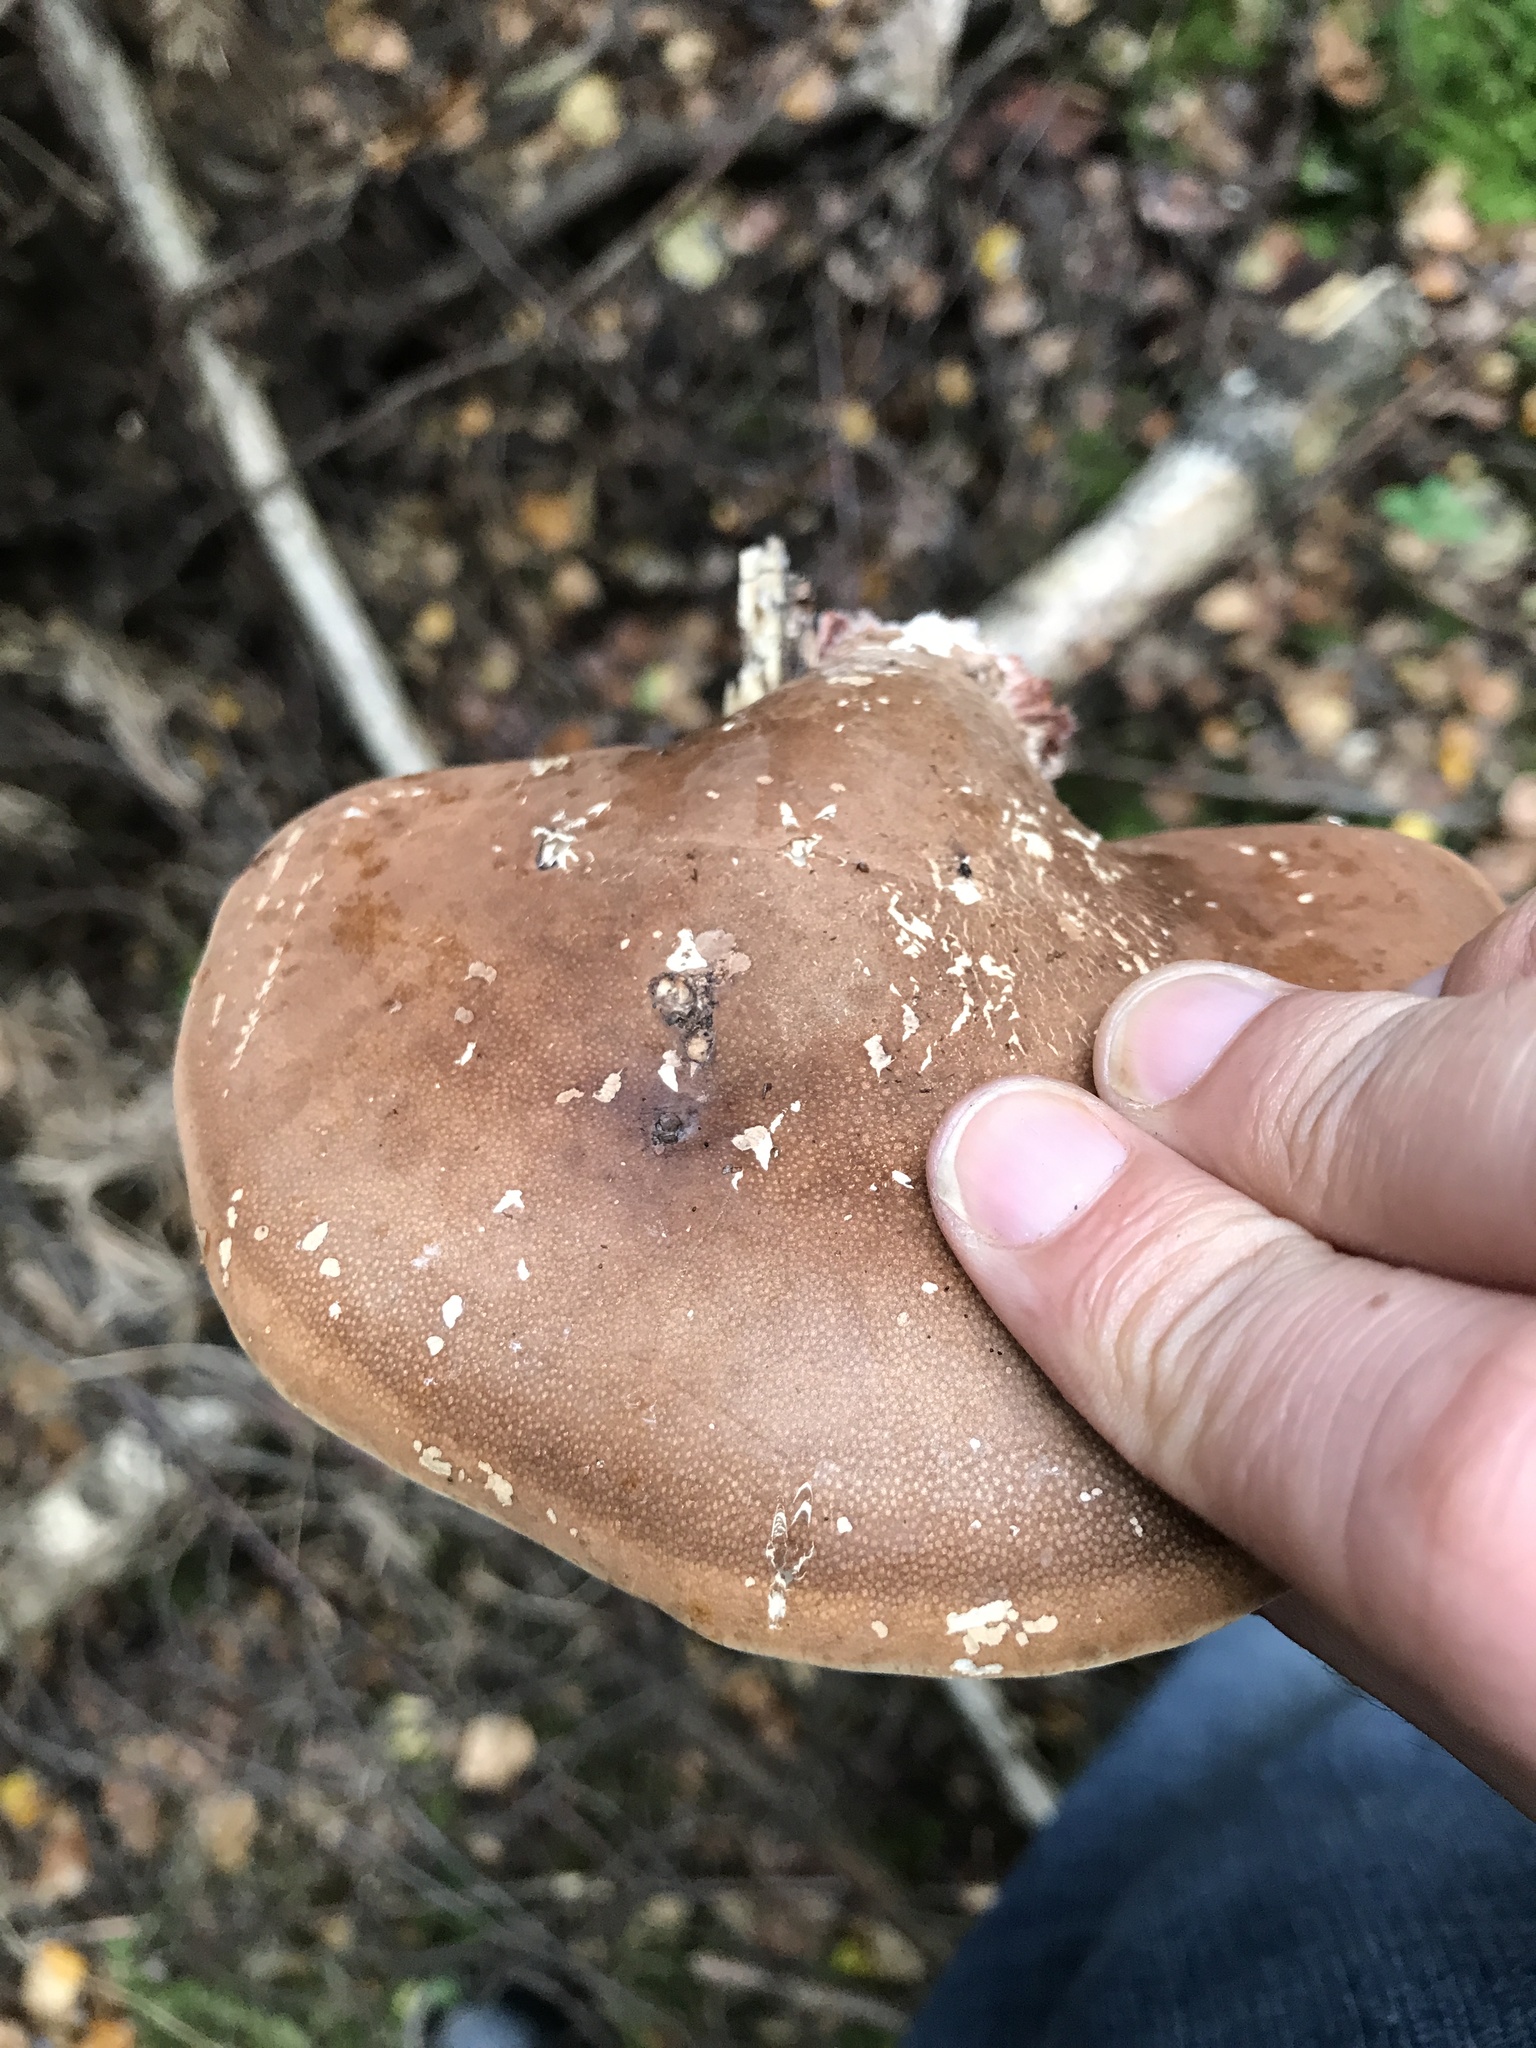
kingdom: Fungi
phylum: Basidiomycota
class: Agaricomycetes
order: Polyporales
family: Fomitopsidaceae
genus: Fomitopsis
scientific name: Fomitopsis betulina
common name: Birch polypore
